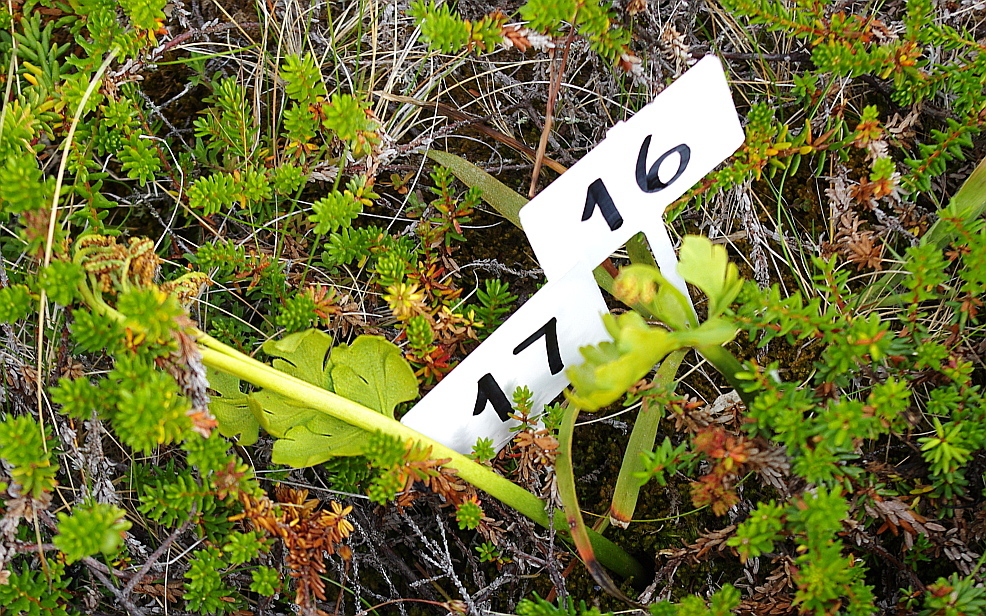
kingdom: Plantae
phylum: Tracheophyta
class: Polypodiopsida
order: Ophioglossales
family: Ophioglossaceae
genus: Botrychium
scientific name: Botrychium boreale
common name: Boreal moonwort
